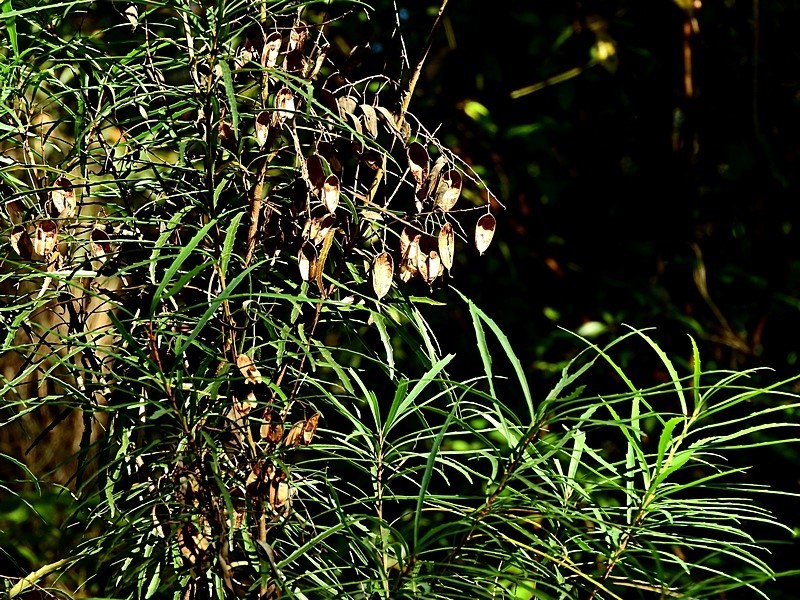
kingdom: Plantae
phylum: Tracheophyta
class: Magnoliopsida
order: Proteales
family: Proteaceae
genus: Lomatia
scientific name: Lomatia myricoides
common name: Longleaf lomatia
